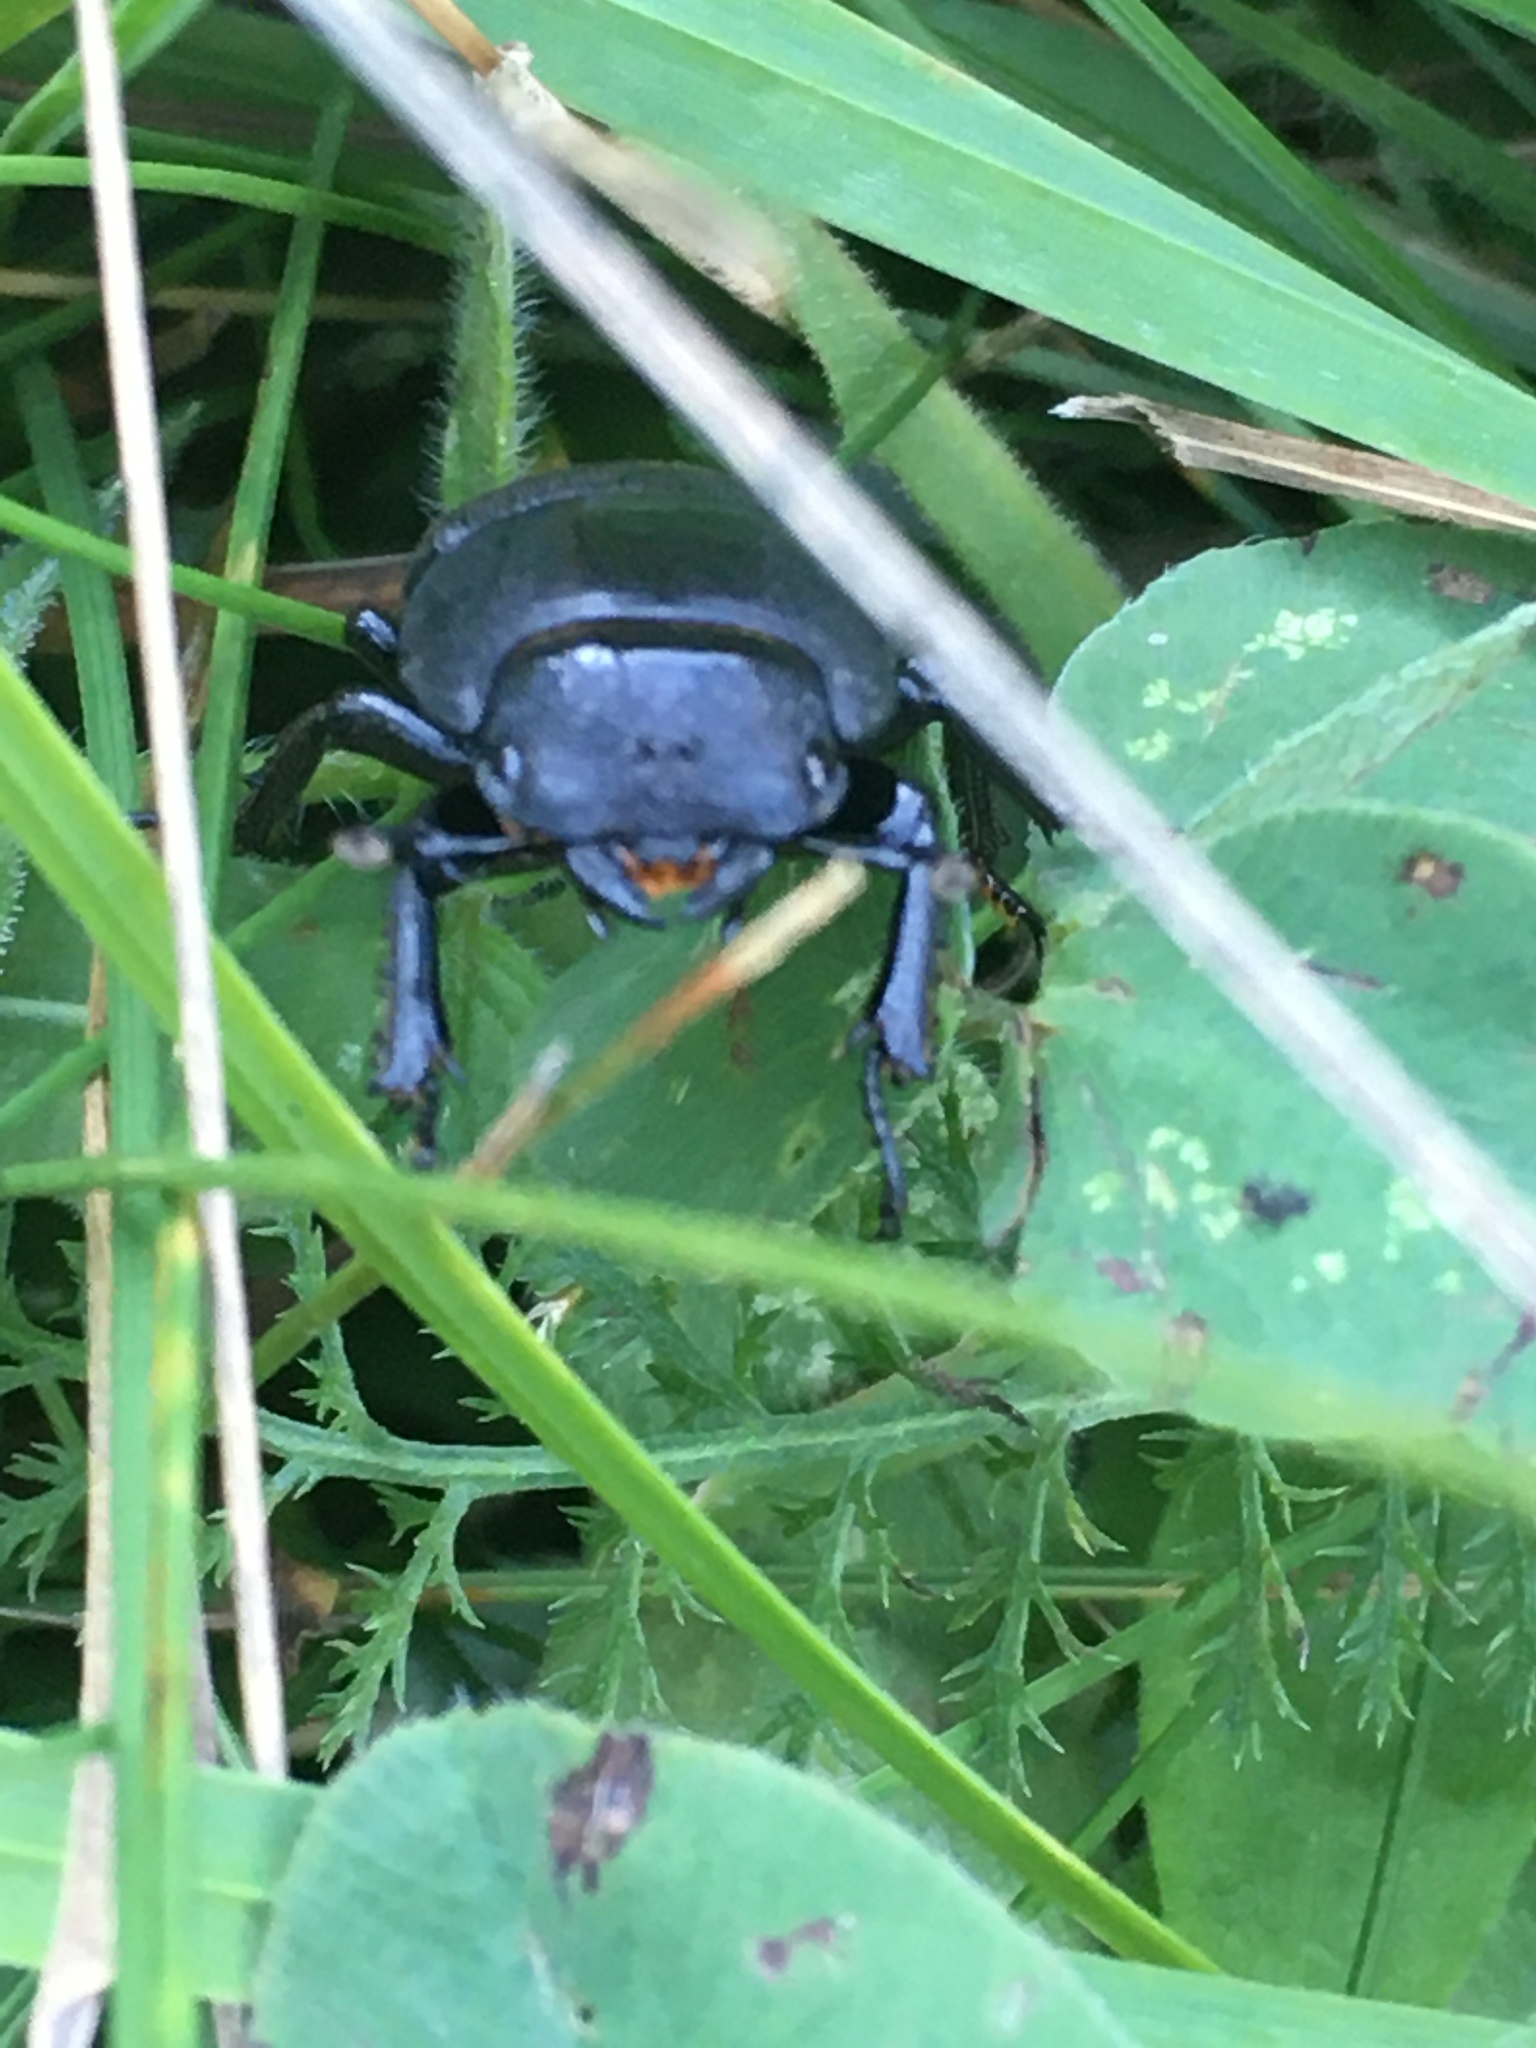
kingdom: Animalia
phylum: Arthropoda
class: Insecta
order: Coleoptera
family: Lucanidae
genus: Dorcus
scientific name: Dorcus parallelipipedus
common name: Lesser stag beetle
